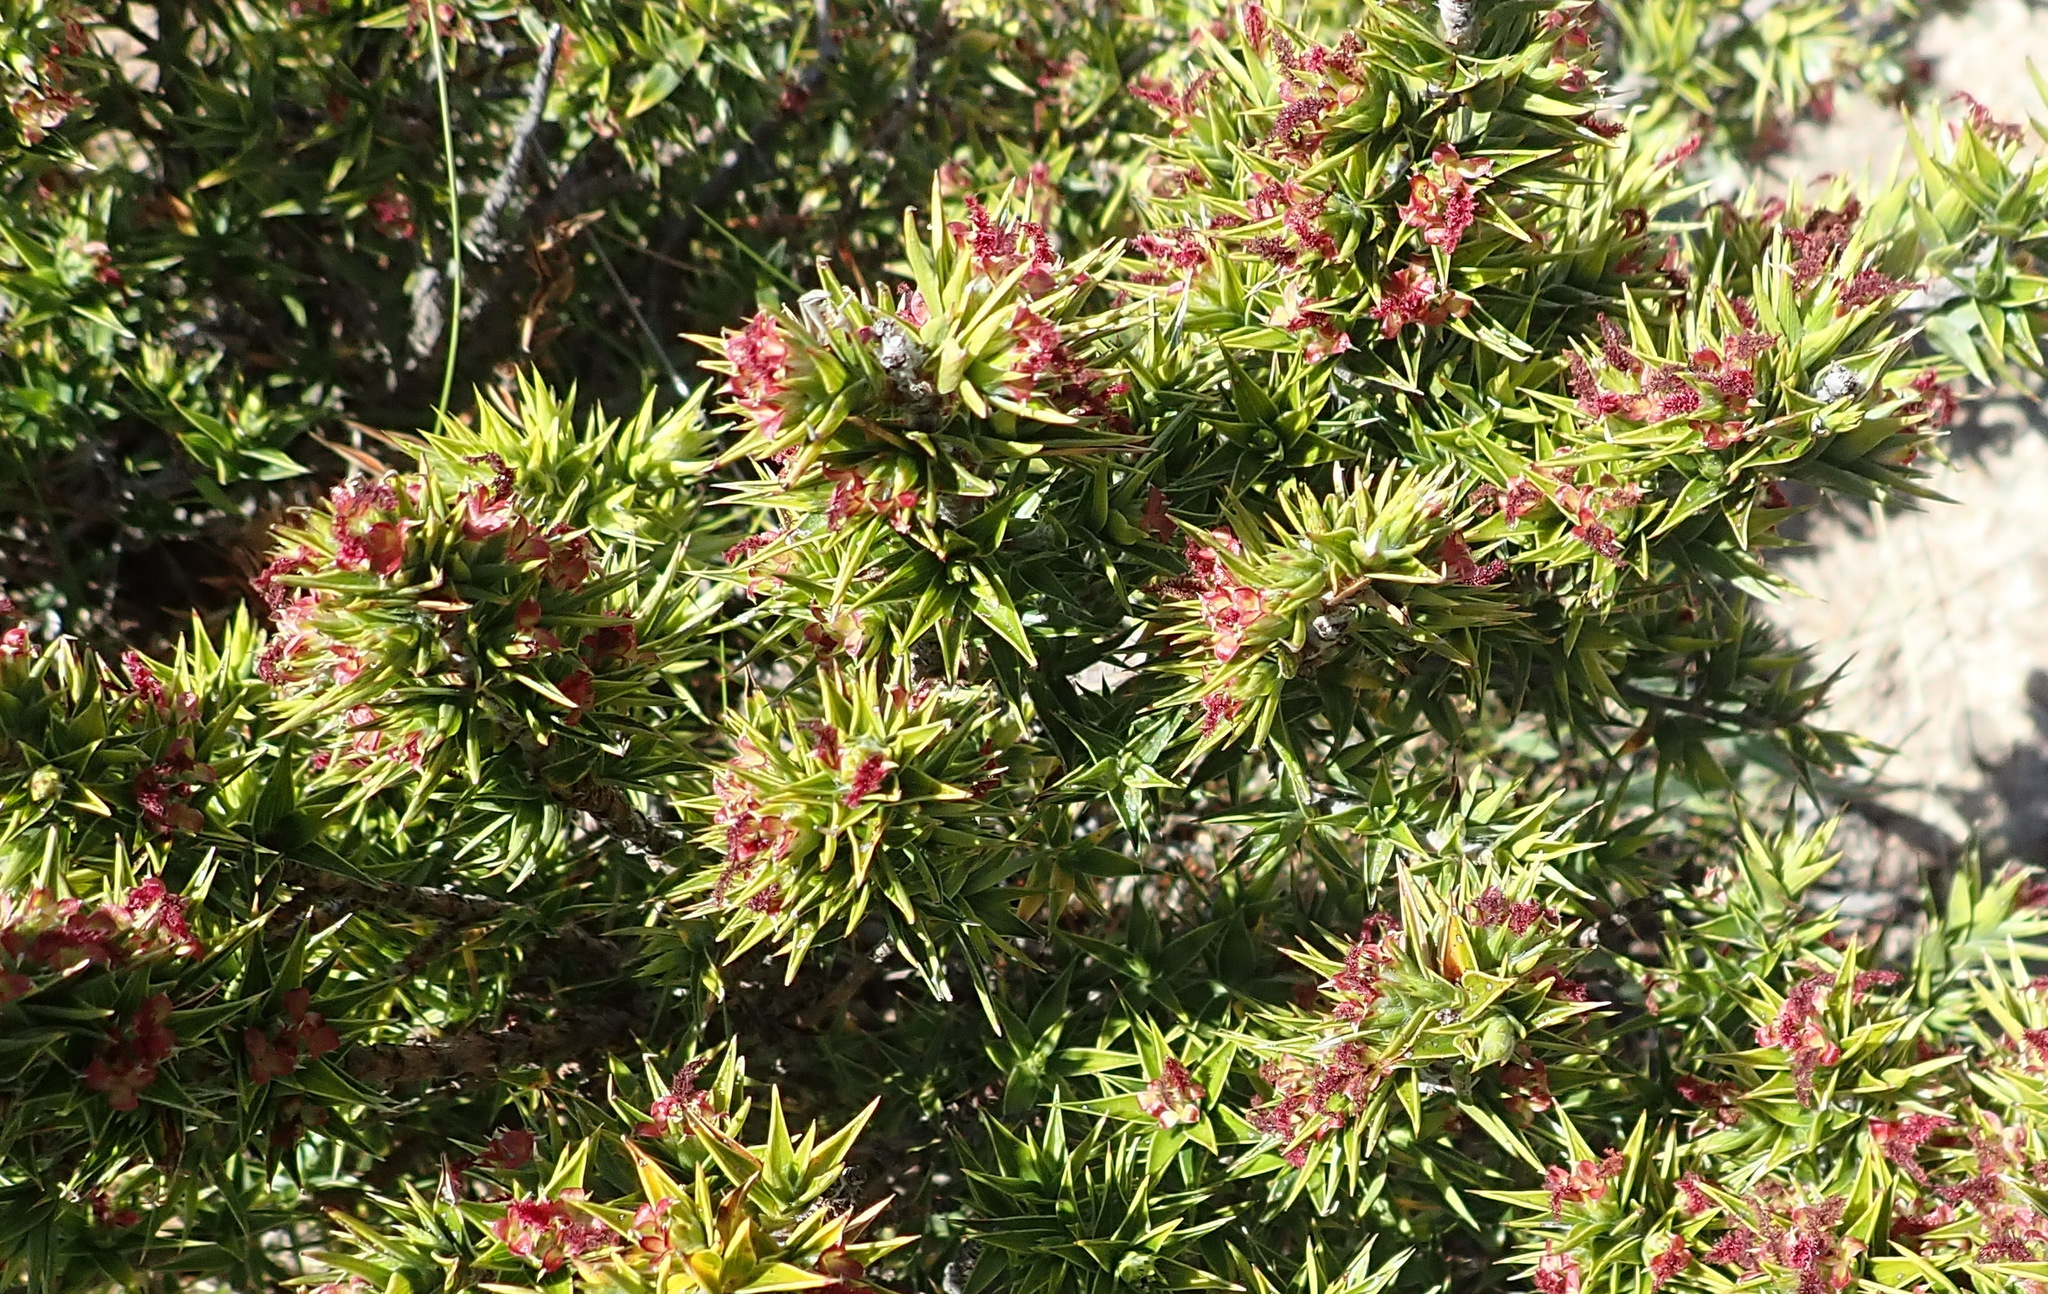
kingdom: Plantae
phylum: Tracheophyta
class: Magnoliopsida
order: Rosales
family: Rosaceae
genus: Cliffortia
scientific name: Cliffortia ruscifolia
